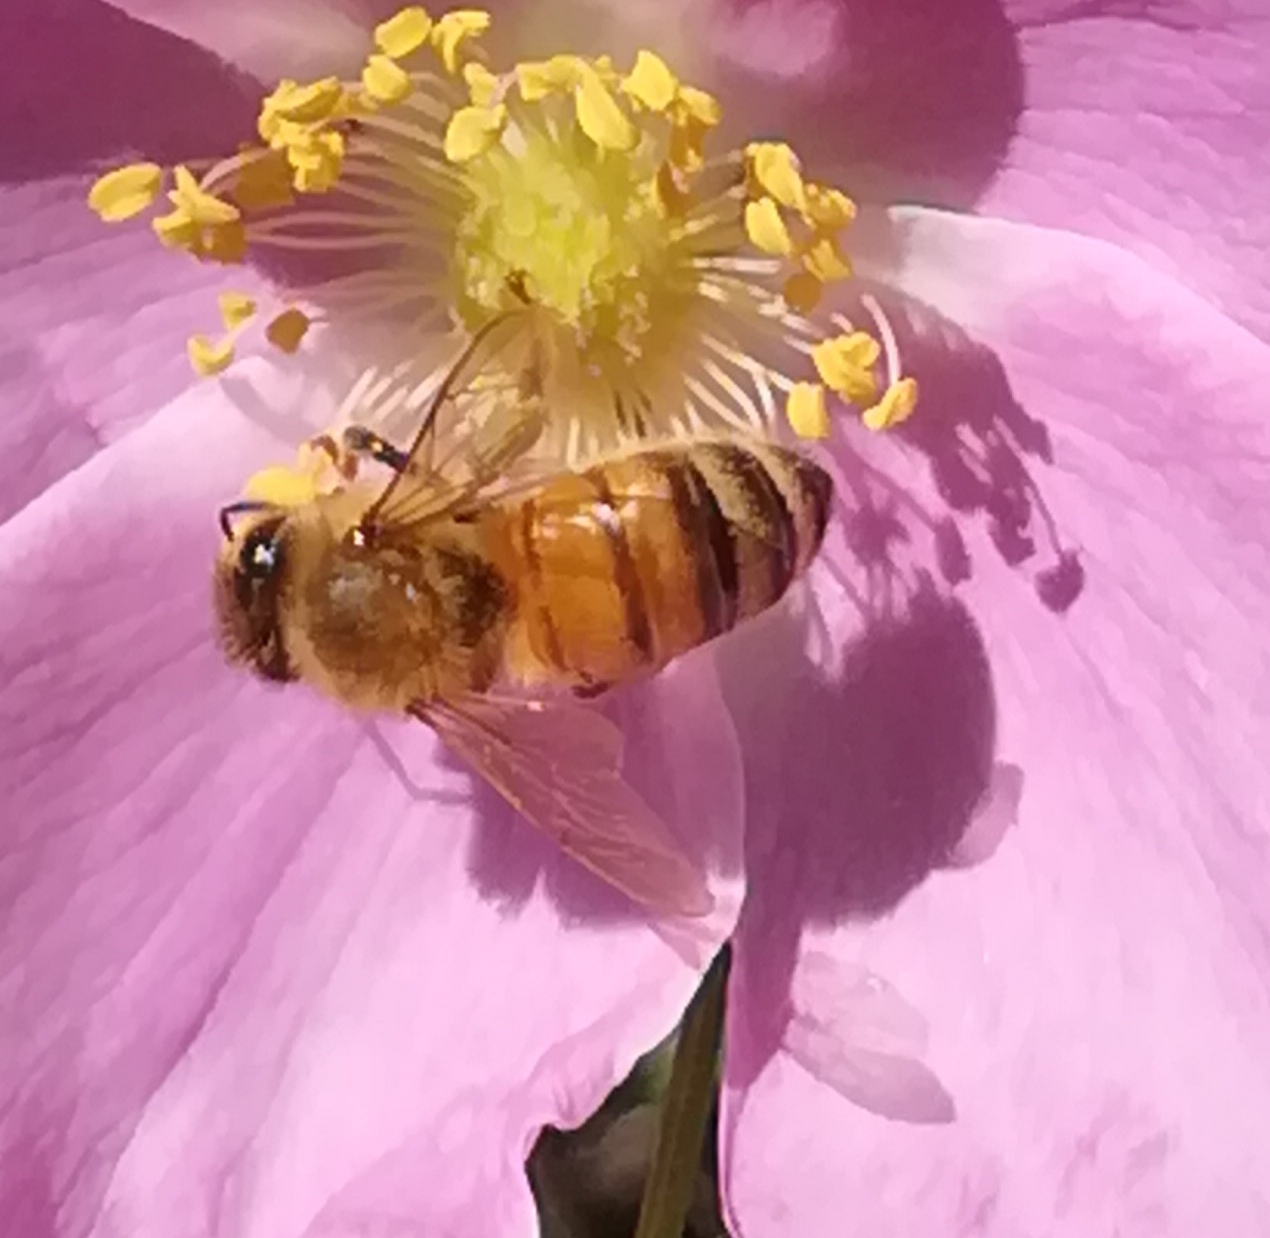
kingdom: Animalia
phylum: Arthropoda
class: Insecta
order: Hymenoptera
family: Apidae
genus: Apis
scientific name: Apis mellifera
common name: Honey bee
